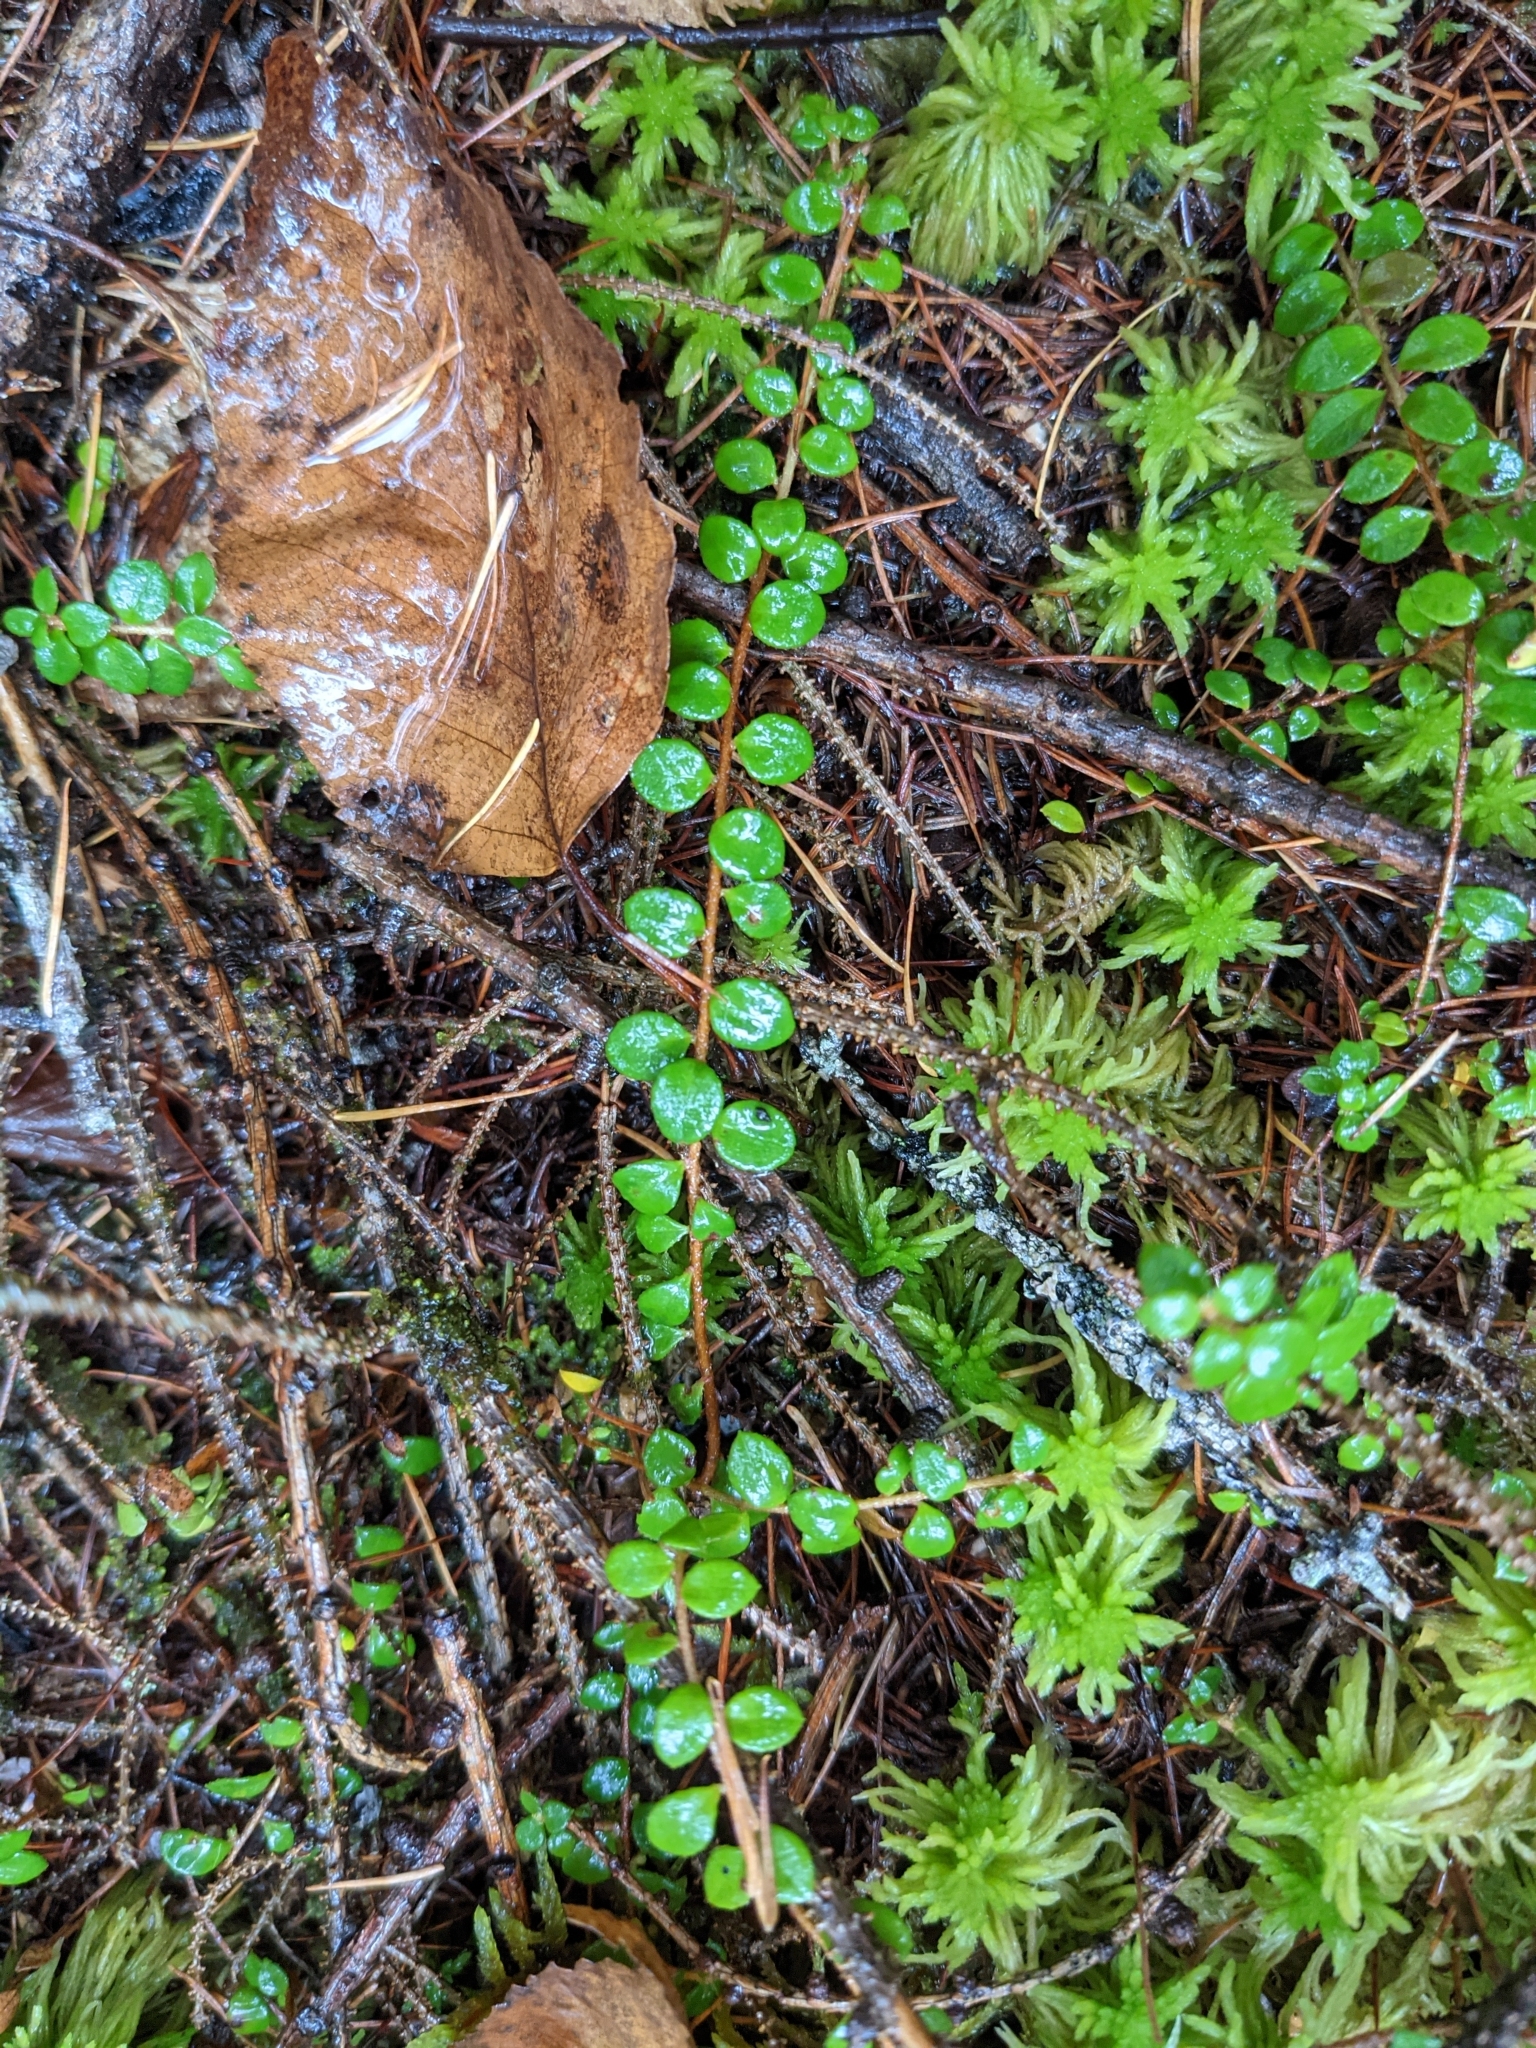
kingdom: Plantae
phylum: Tracheophyta
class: Magnoliopsida
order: Ericales
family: Ericaceae
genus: Gaultheria
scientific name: Gaultheria hispidula
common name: Cancer wintergreen
